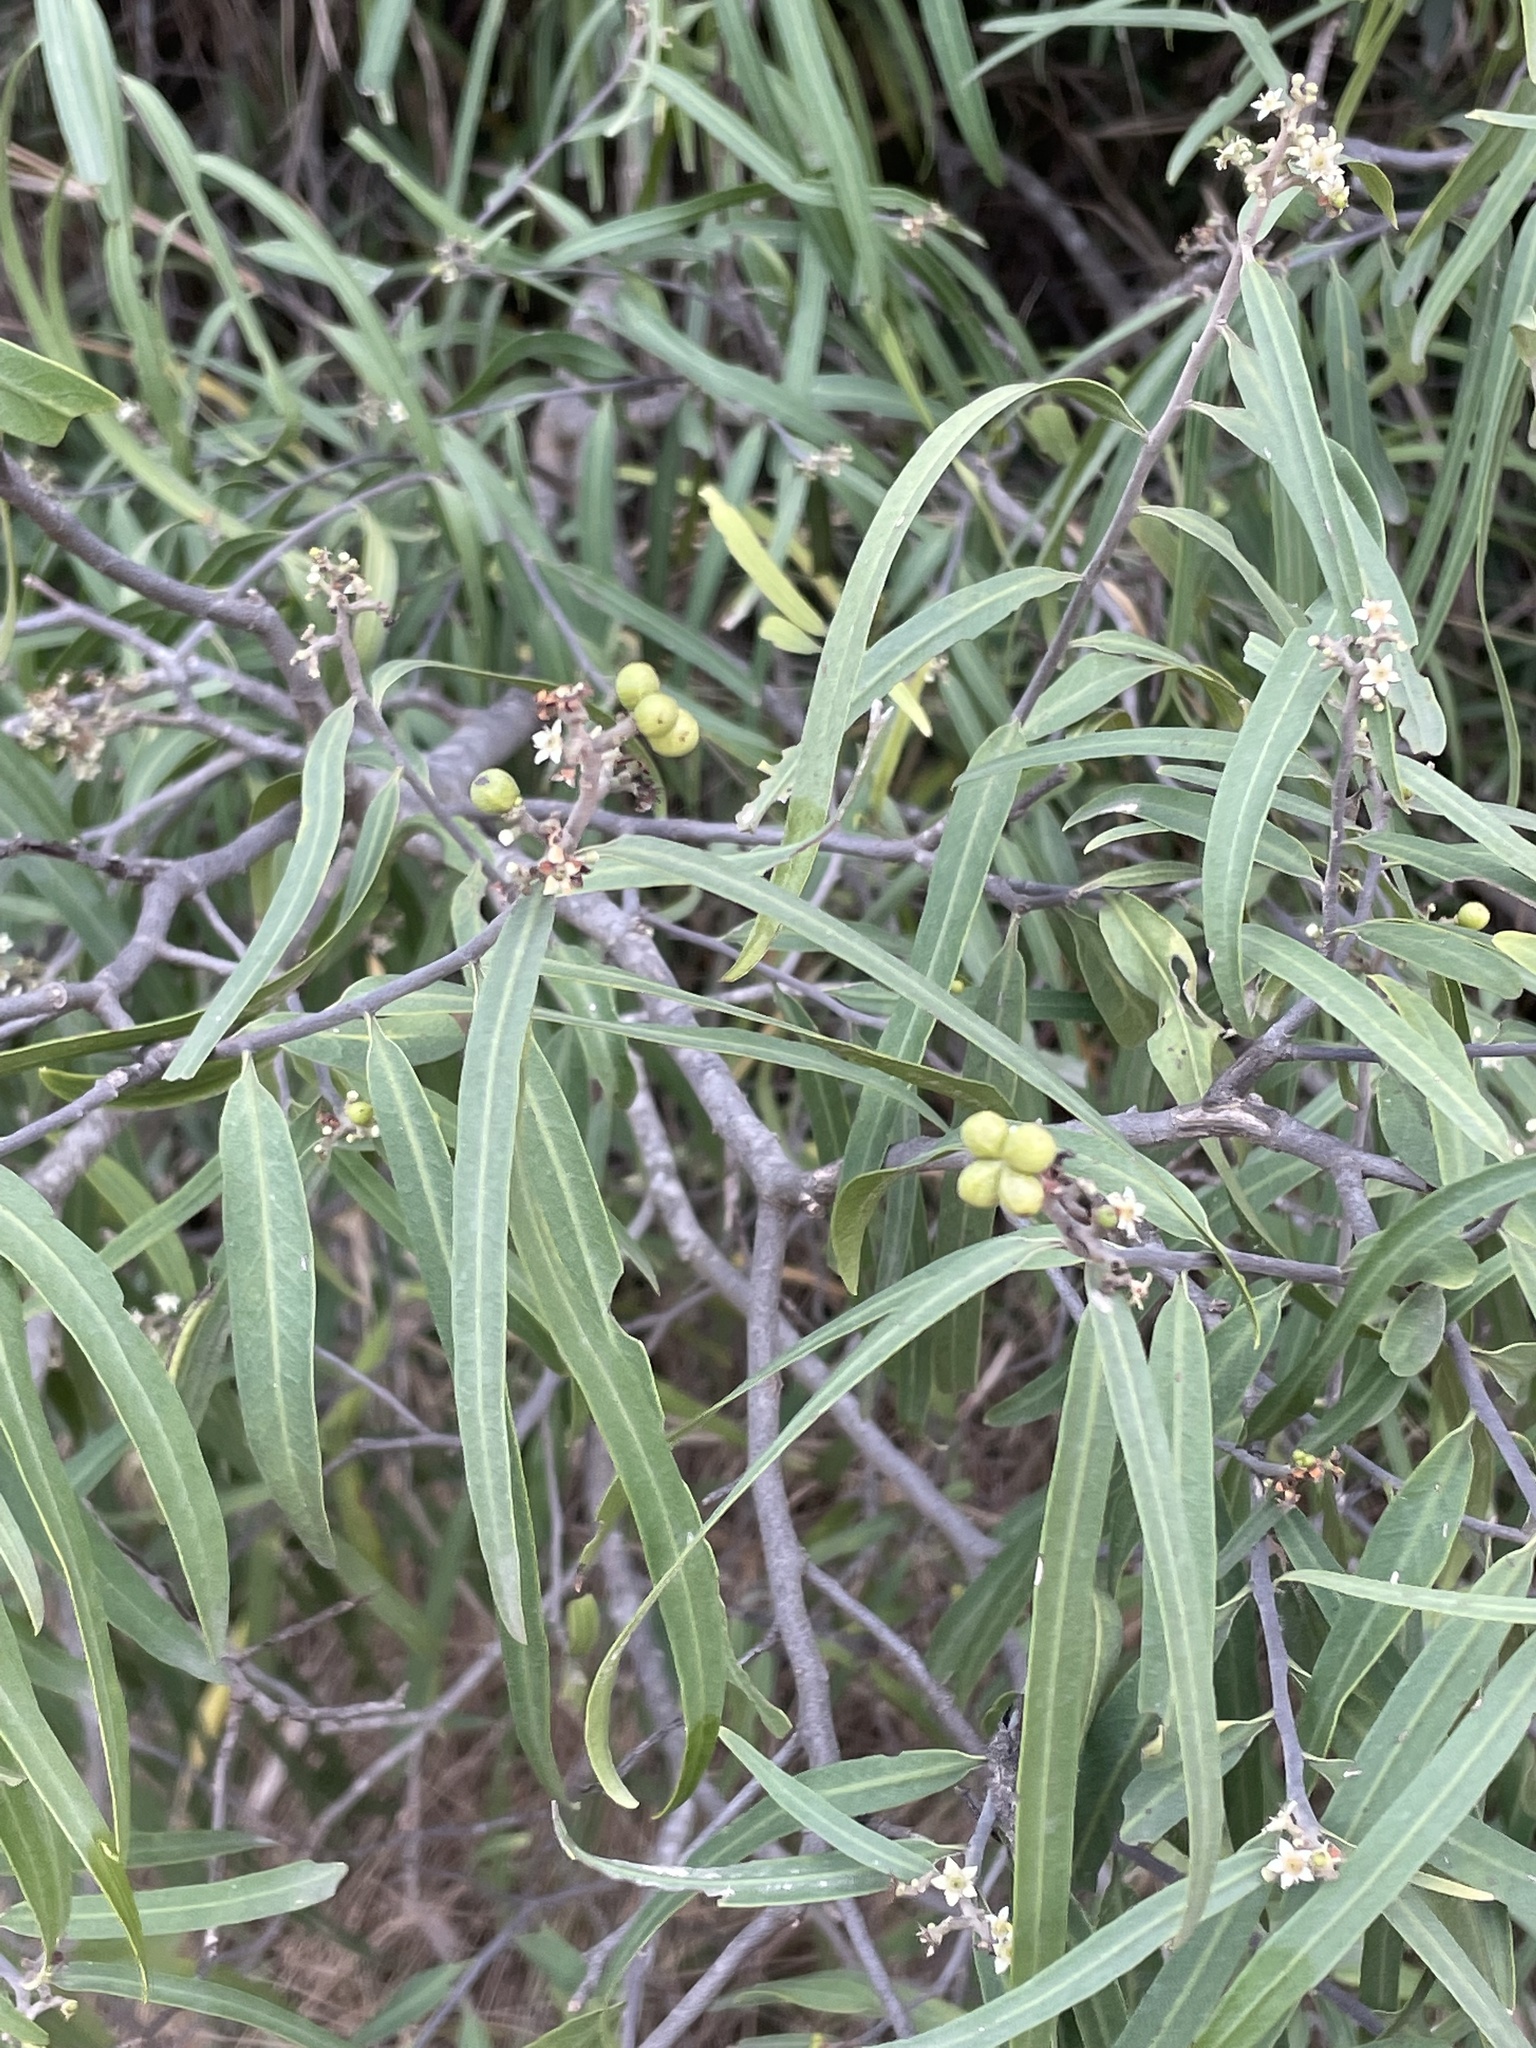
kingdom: Plantae
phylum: Tracheophyta
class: Magnoliopsida
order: Sapindales
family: Rutaceae
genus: Geijera
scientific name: Geijera parviflora
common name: Wilga
